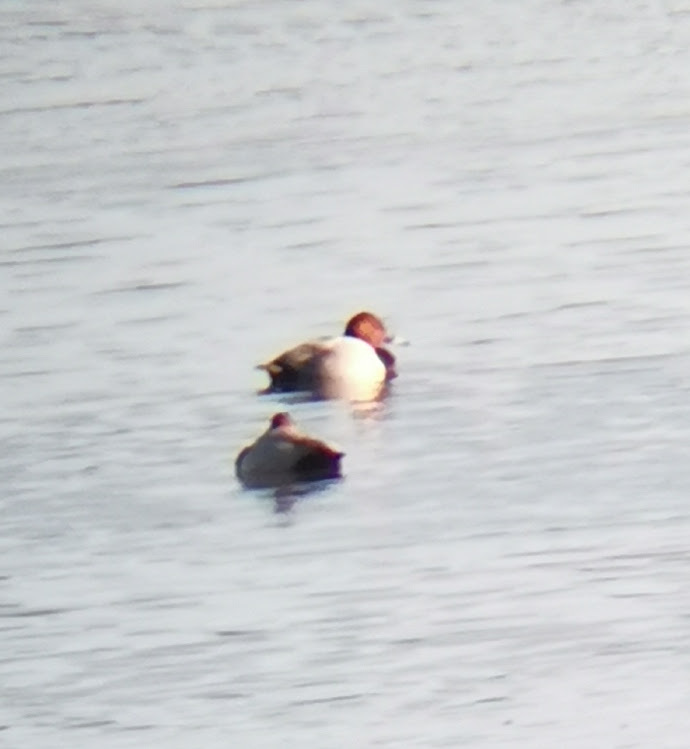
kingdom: Animalia
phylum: Chordata
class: Aves
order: Anseriformes
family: Anatidae
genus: Aythya
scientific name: Aythya ferina
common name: Common pochard
